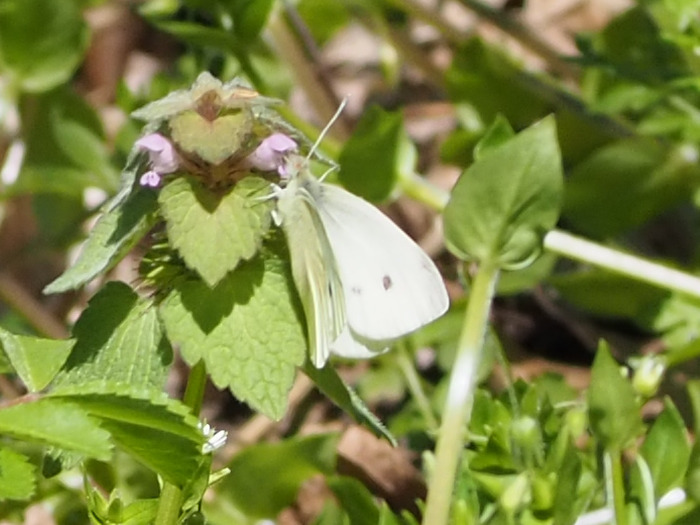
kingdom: Animalia
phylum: Arthropoda
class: Insecta
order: Lepidoptera
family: Pieridae
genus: Pieris
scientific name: Pieris rapae
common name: Small white
